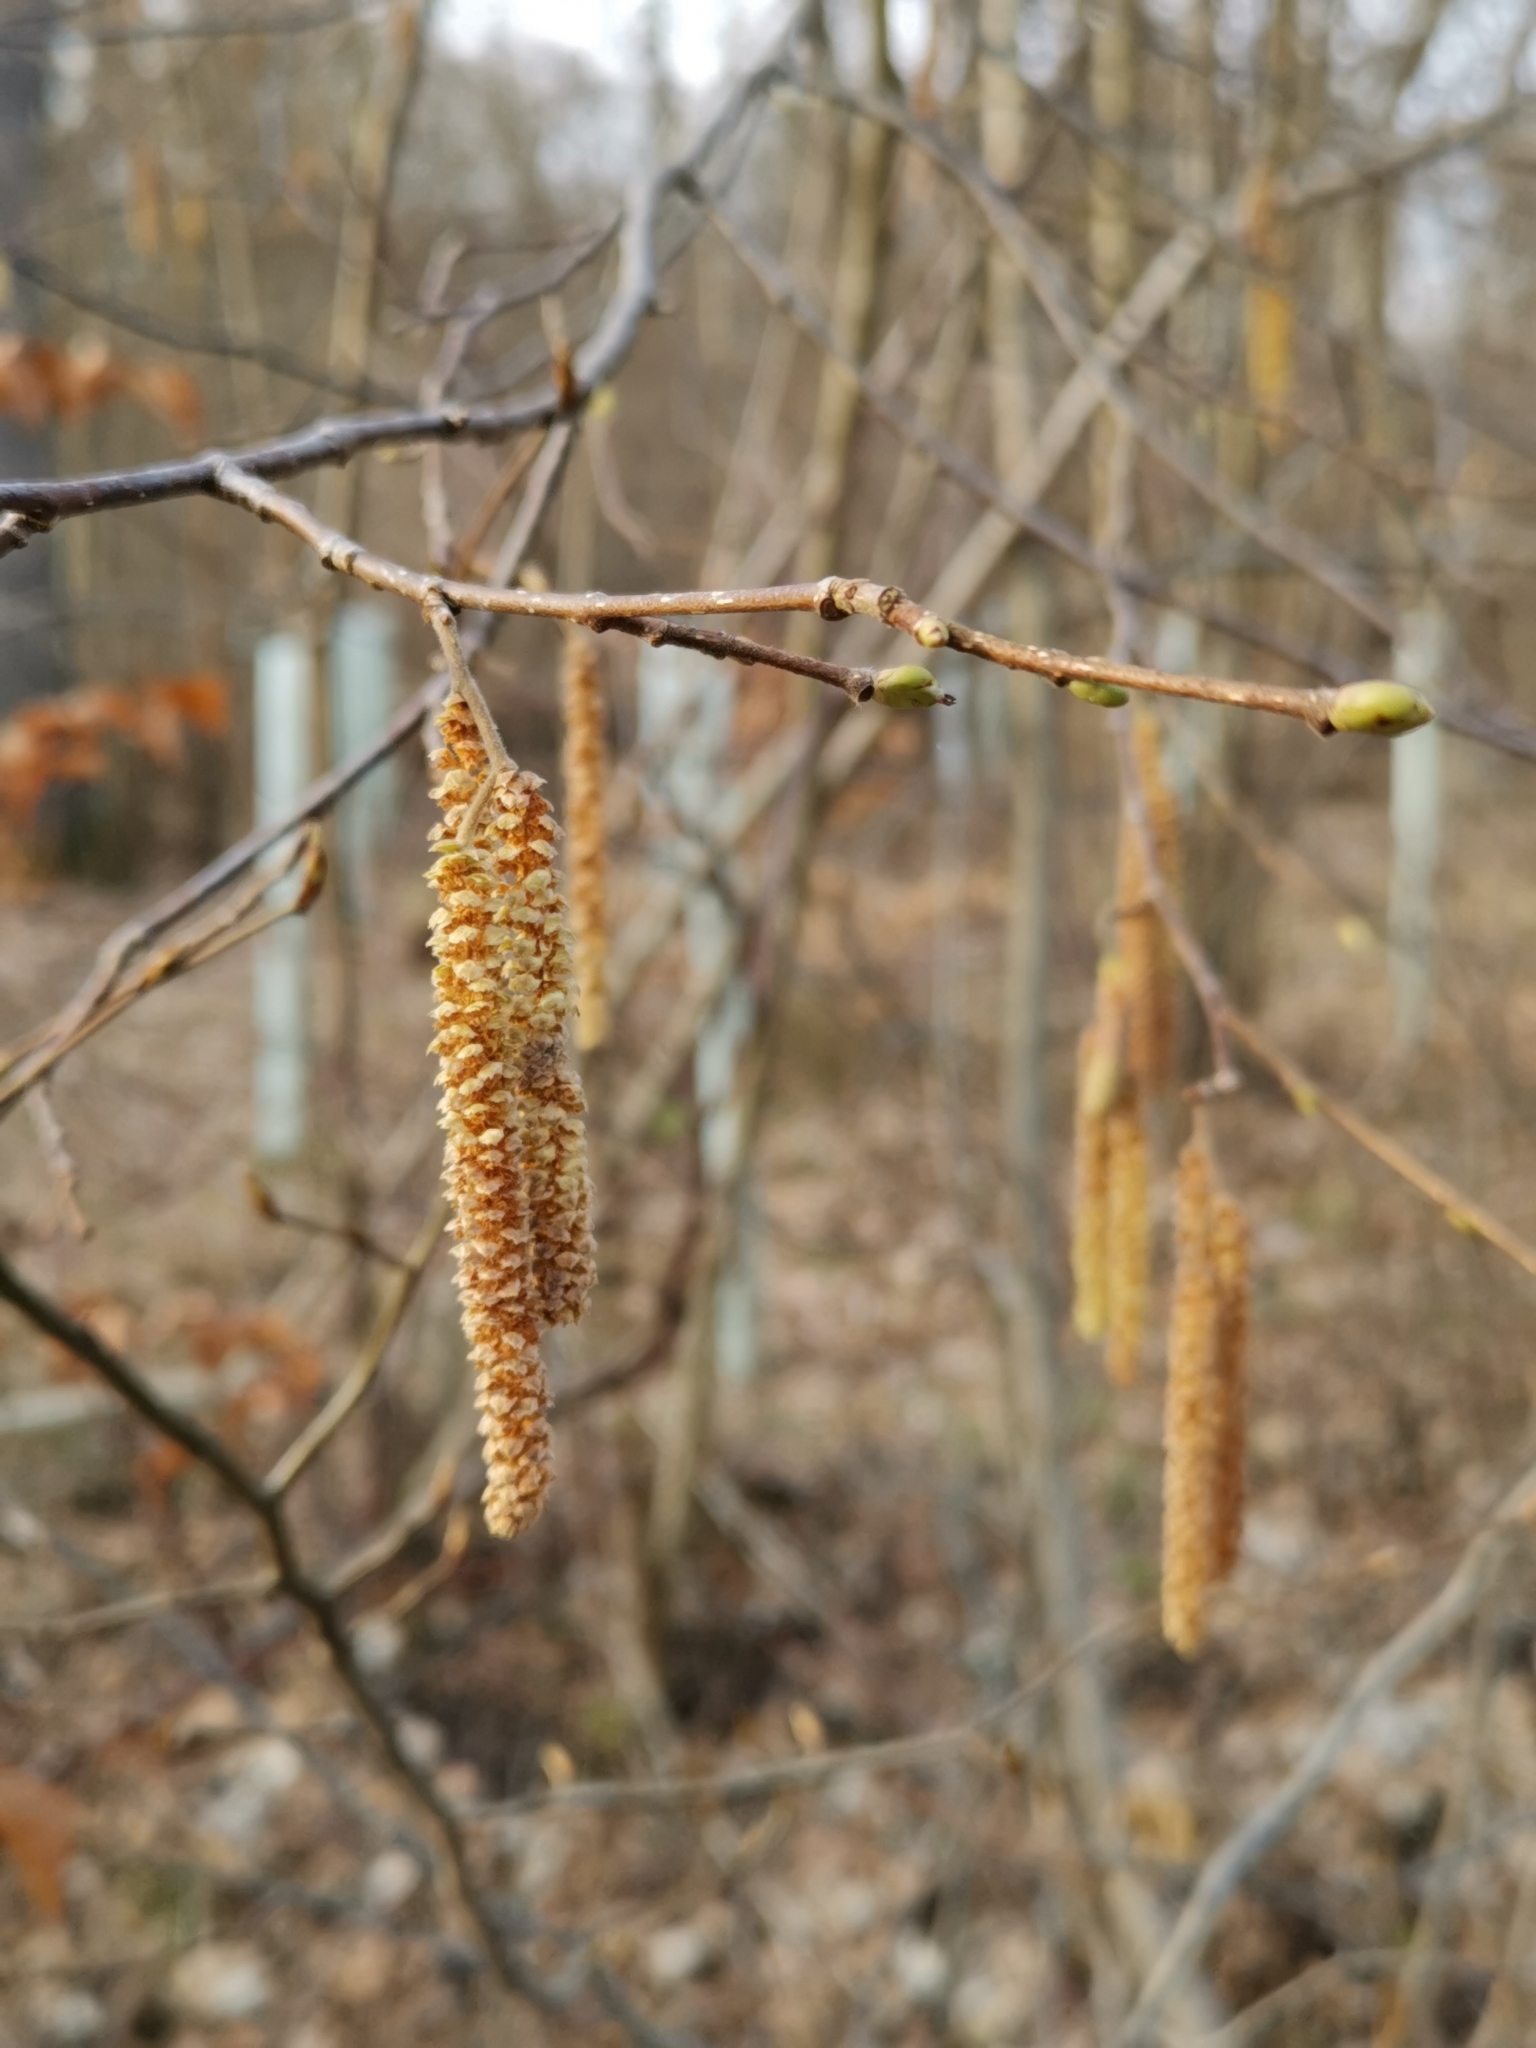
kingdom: Plantae
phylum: Tracheophyta
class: Magnoliopsida
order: Fagales
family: Betulaceae
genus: Corylus
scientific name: Corylus avellana
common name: European hazel
